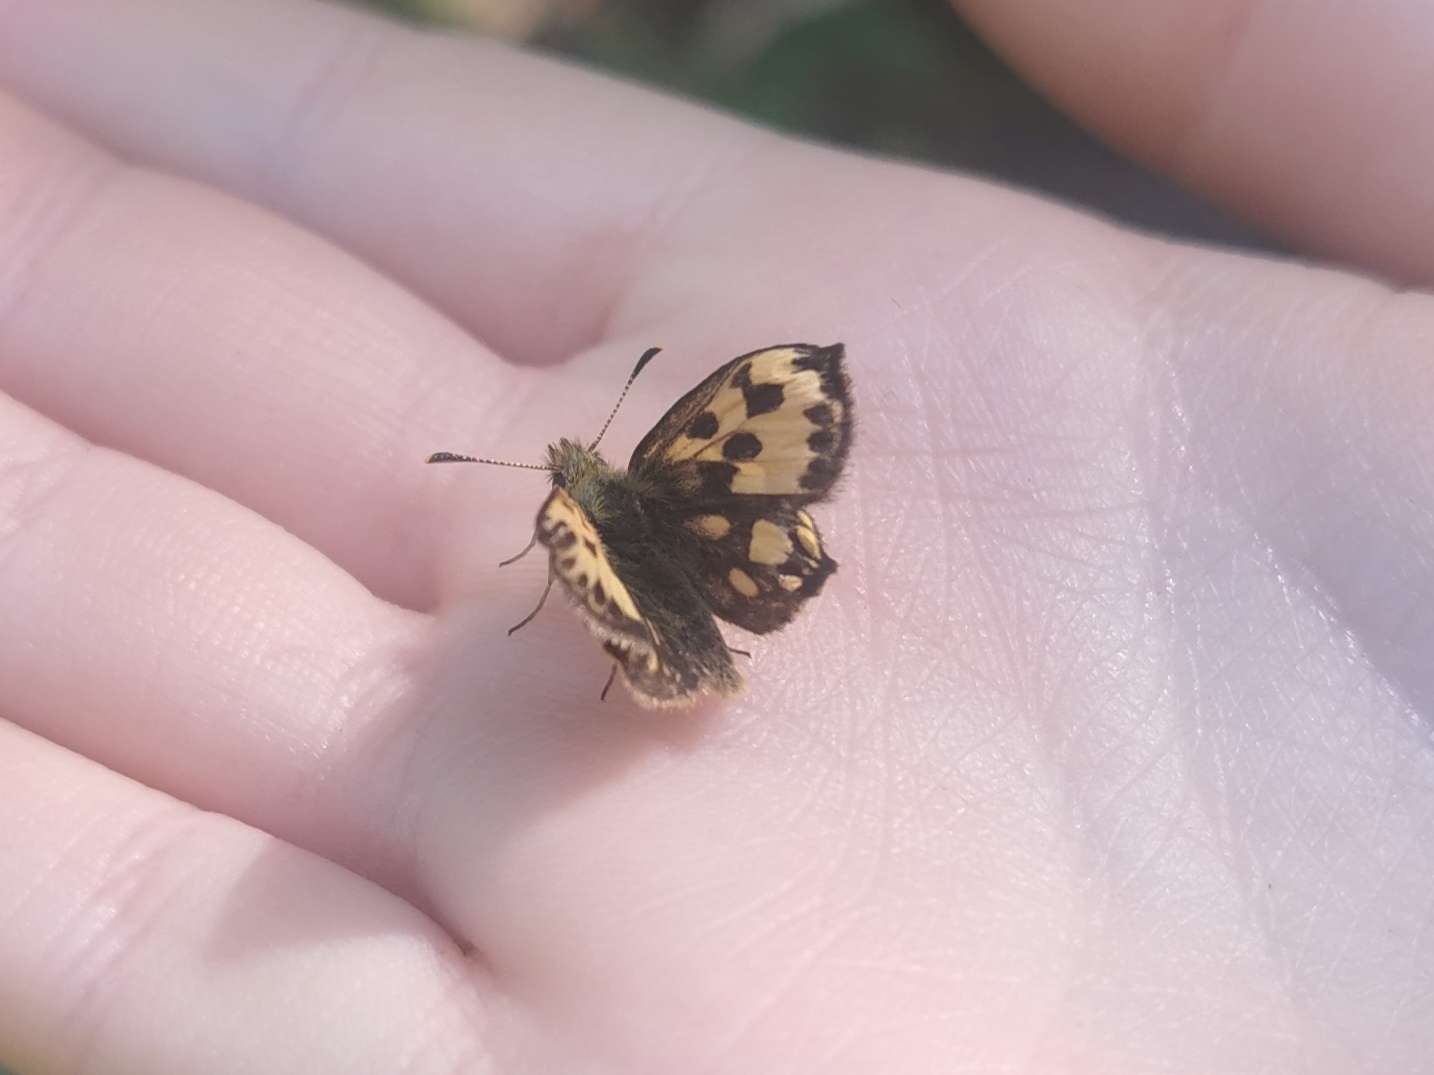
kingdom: Animalia
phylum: Arthropoda
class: Insecta
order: Lepidoptera
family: Hesperiidae
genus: Carterocephalus
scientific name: Carterocephalus silvicola
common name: Northern chequered skipper
